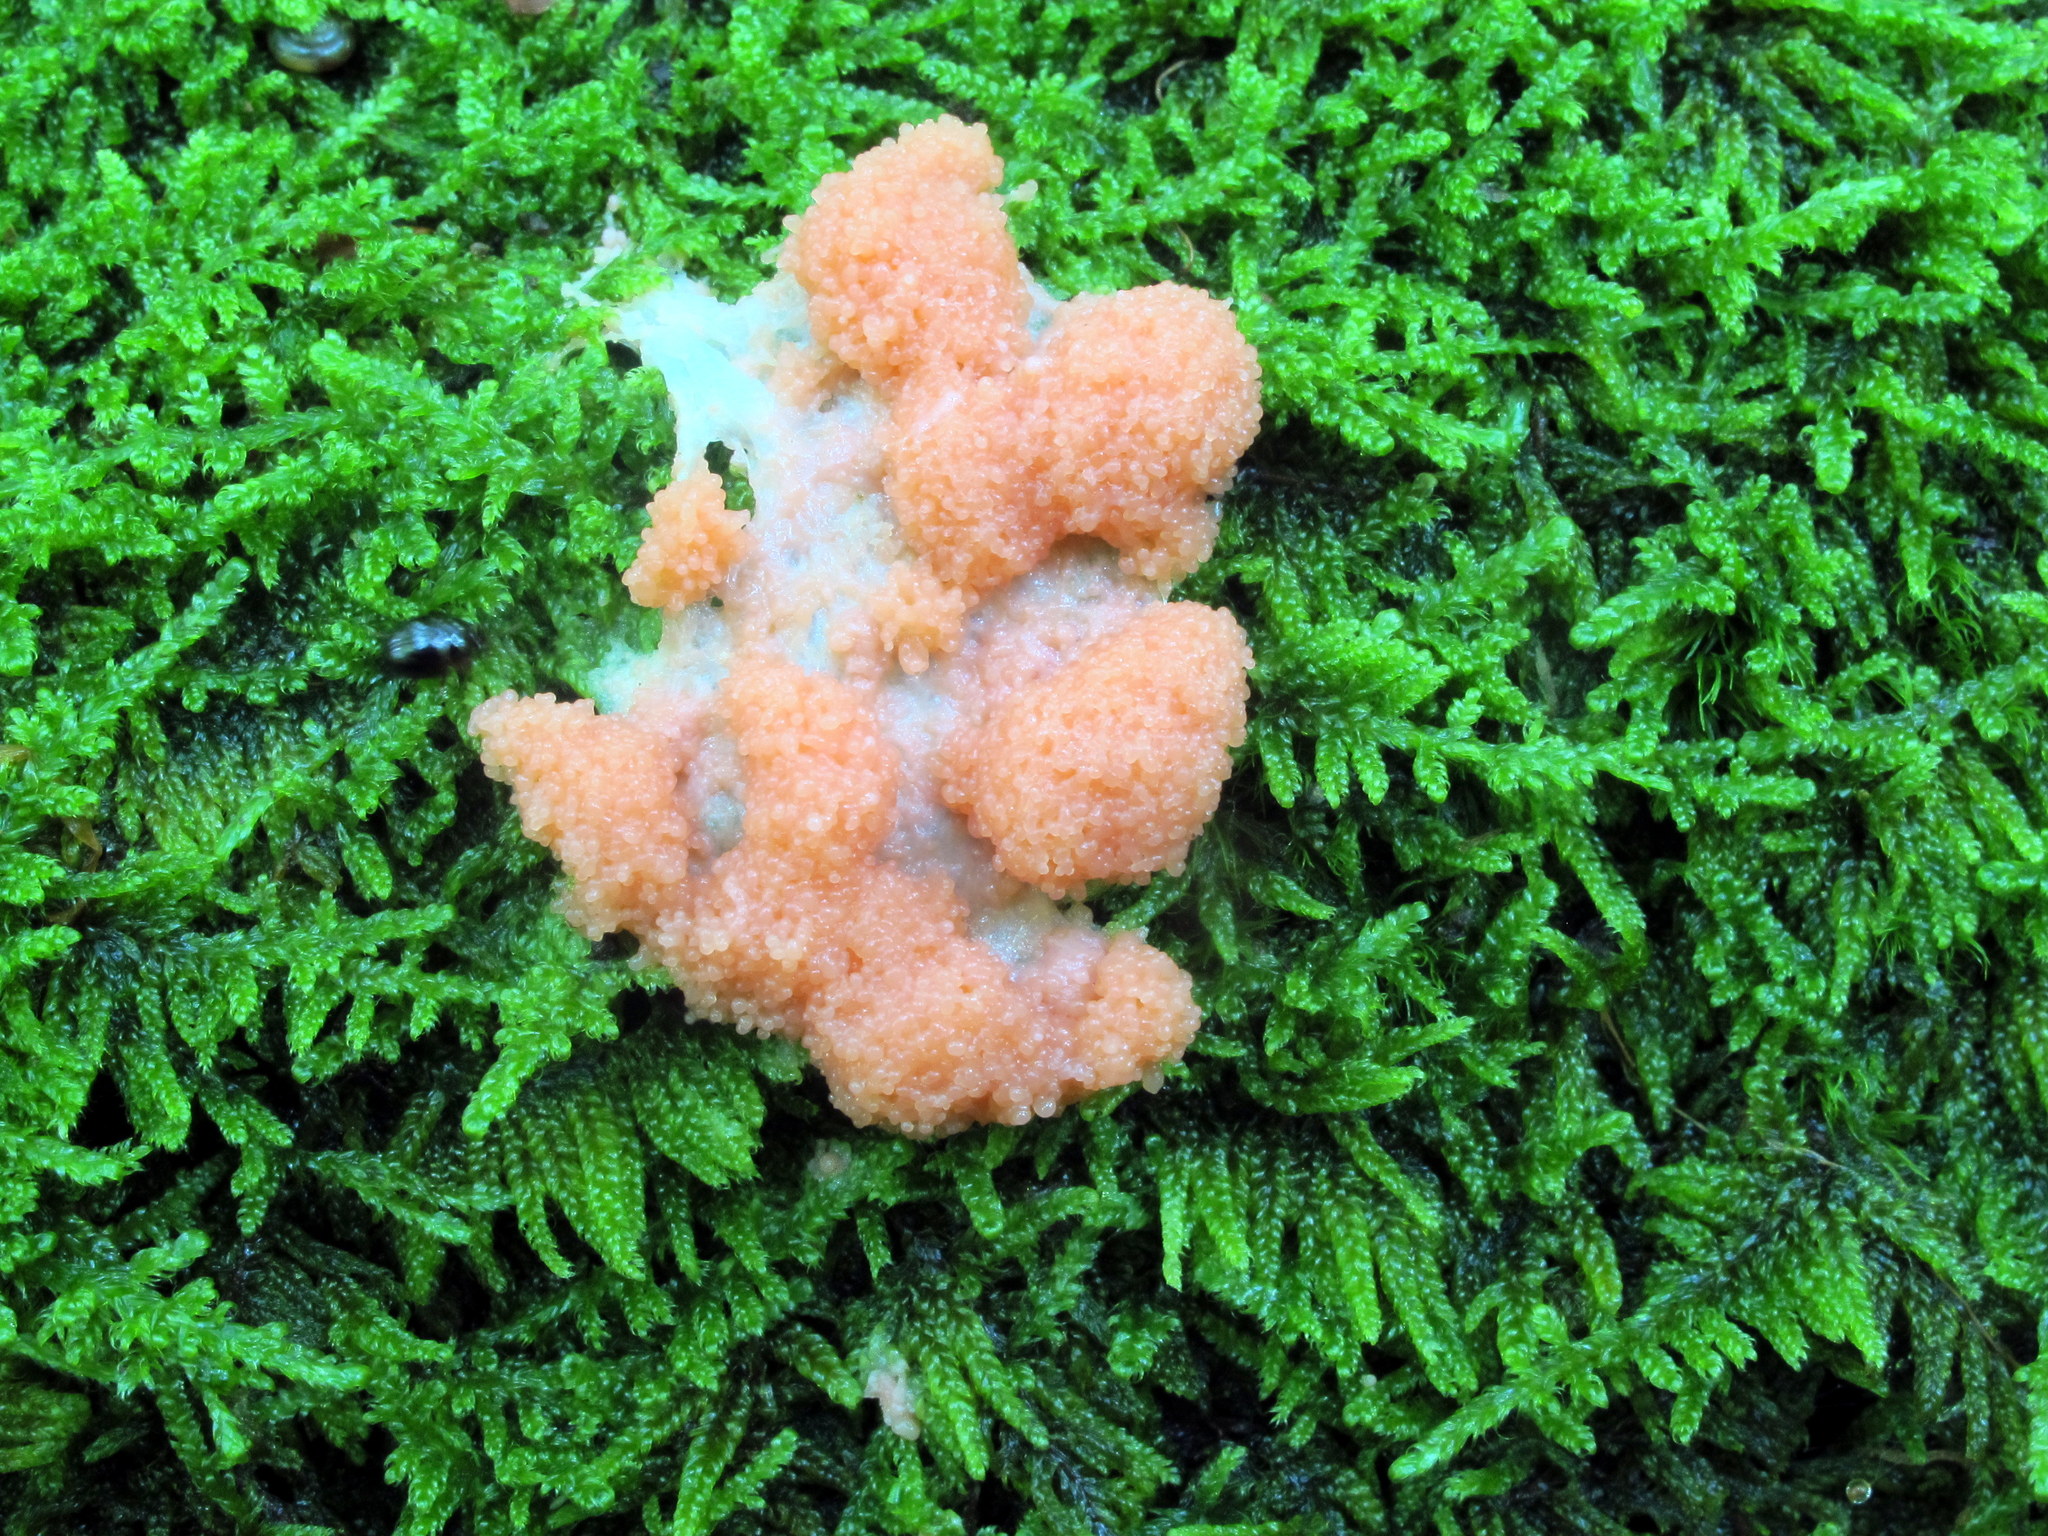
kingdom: Protozoa
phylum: Mycetozoa
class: Myxomycetes
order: Cribrariales
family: Tubiferaceae
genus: Tubifera
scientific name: Tubifera ferruginosa
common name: Red raspberry slime mold
